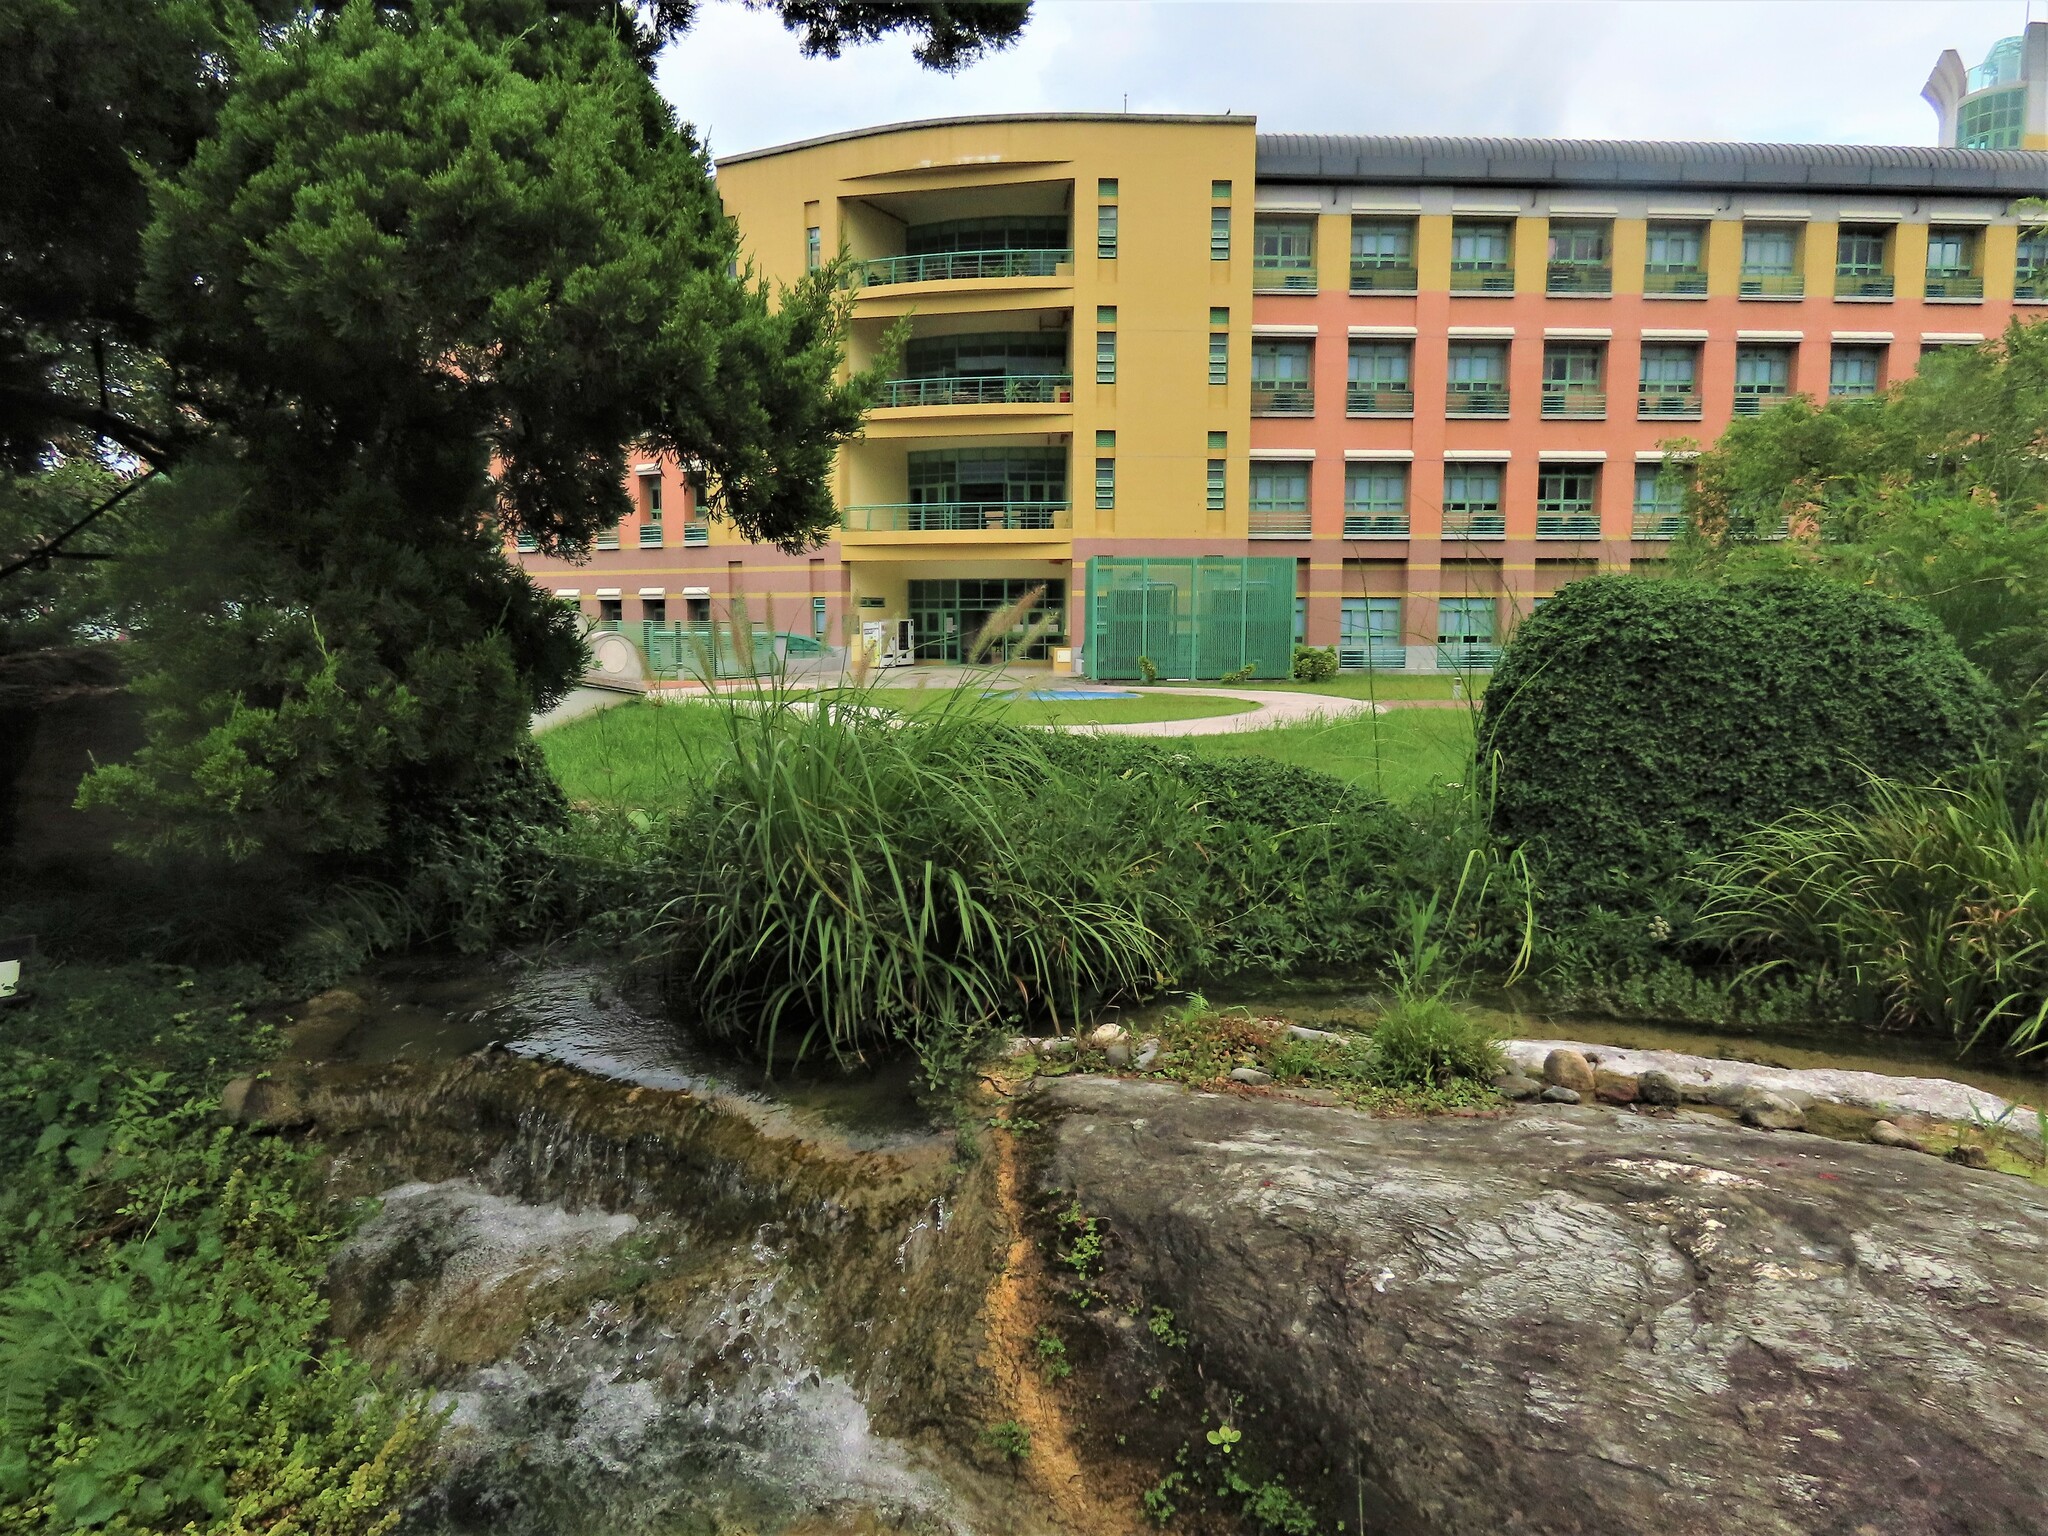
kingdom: Plantae
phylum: Tracheophyta
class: Magnoliopsida
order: Apiales
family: Apiaceae
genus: Oenanthe
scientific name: Oenanthe javanica
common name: Java water-dropwort
